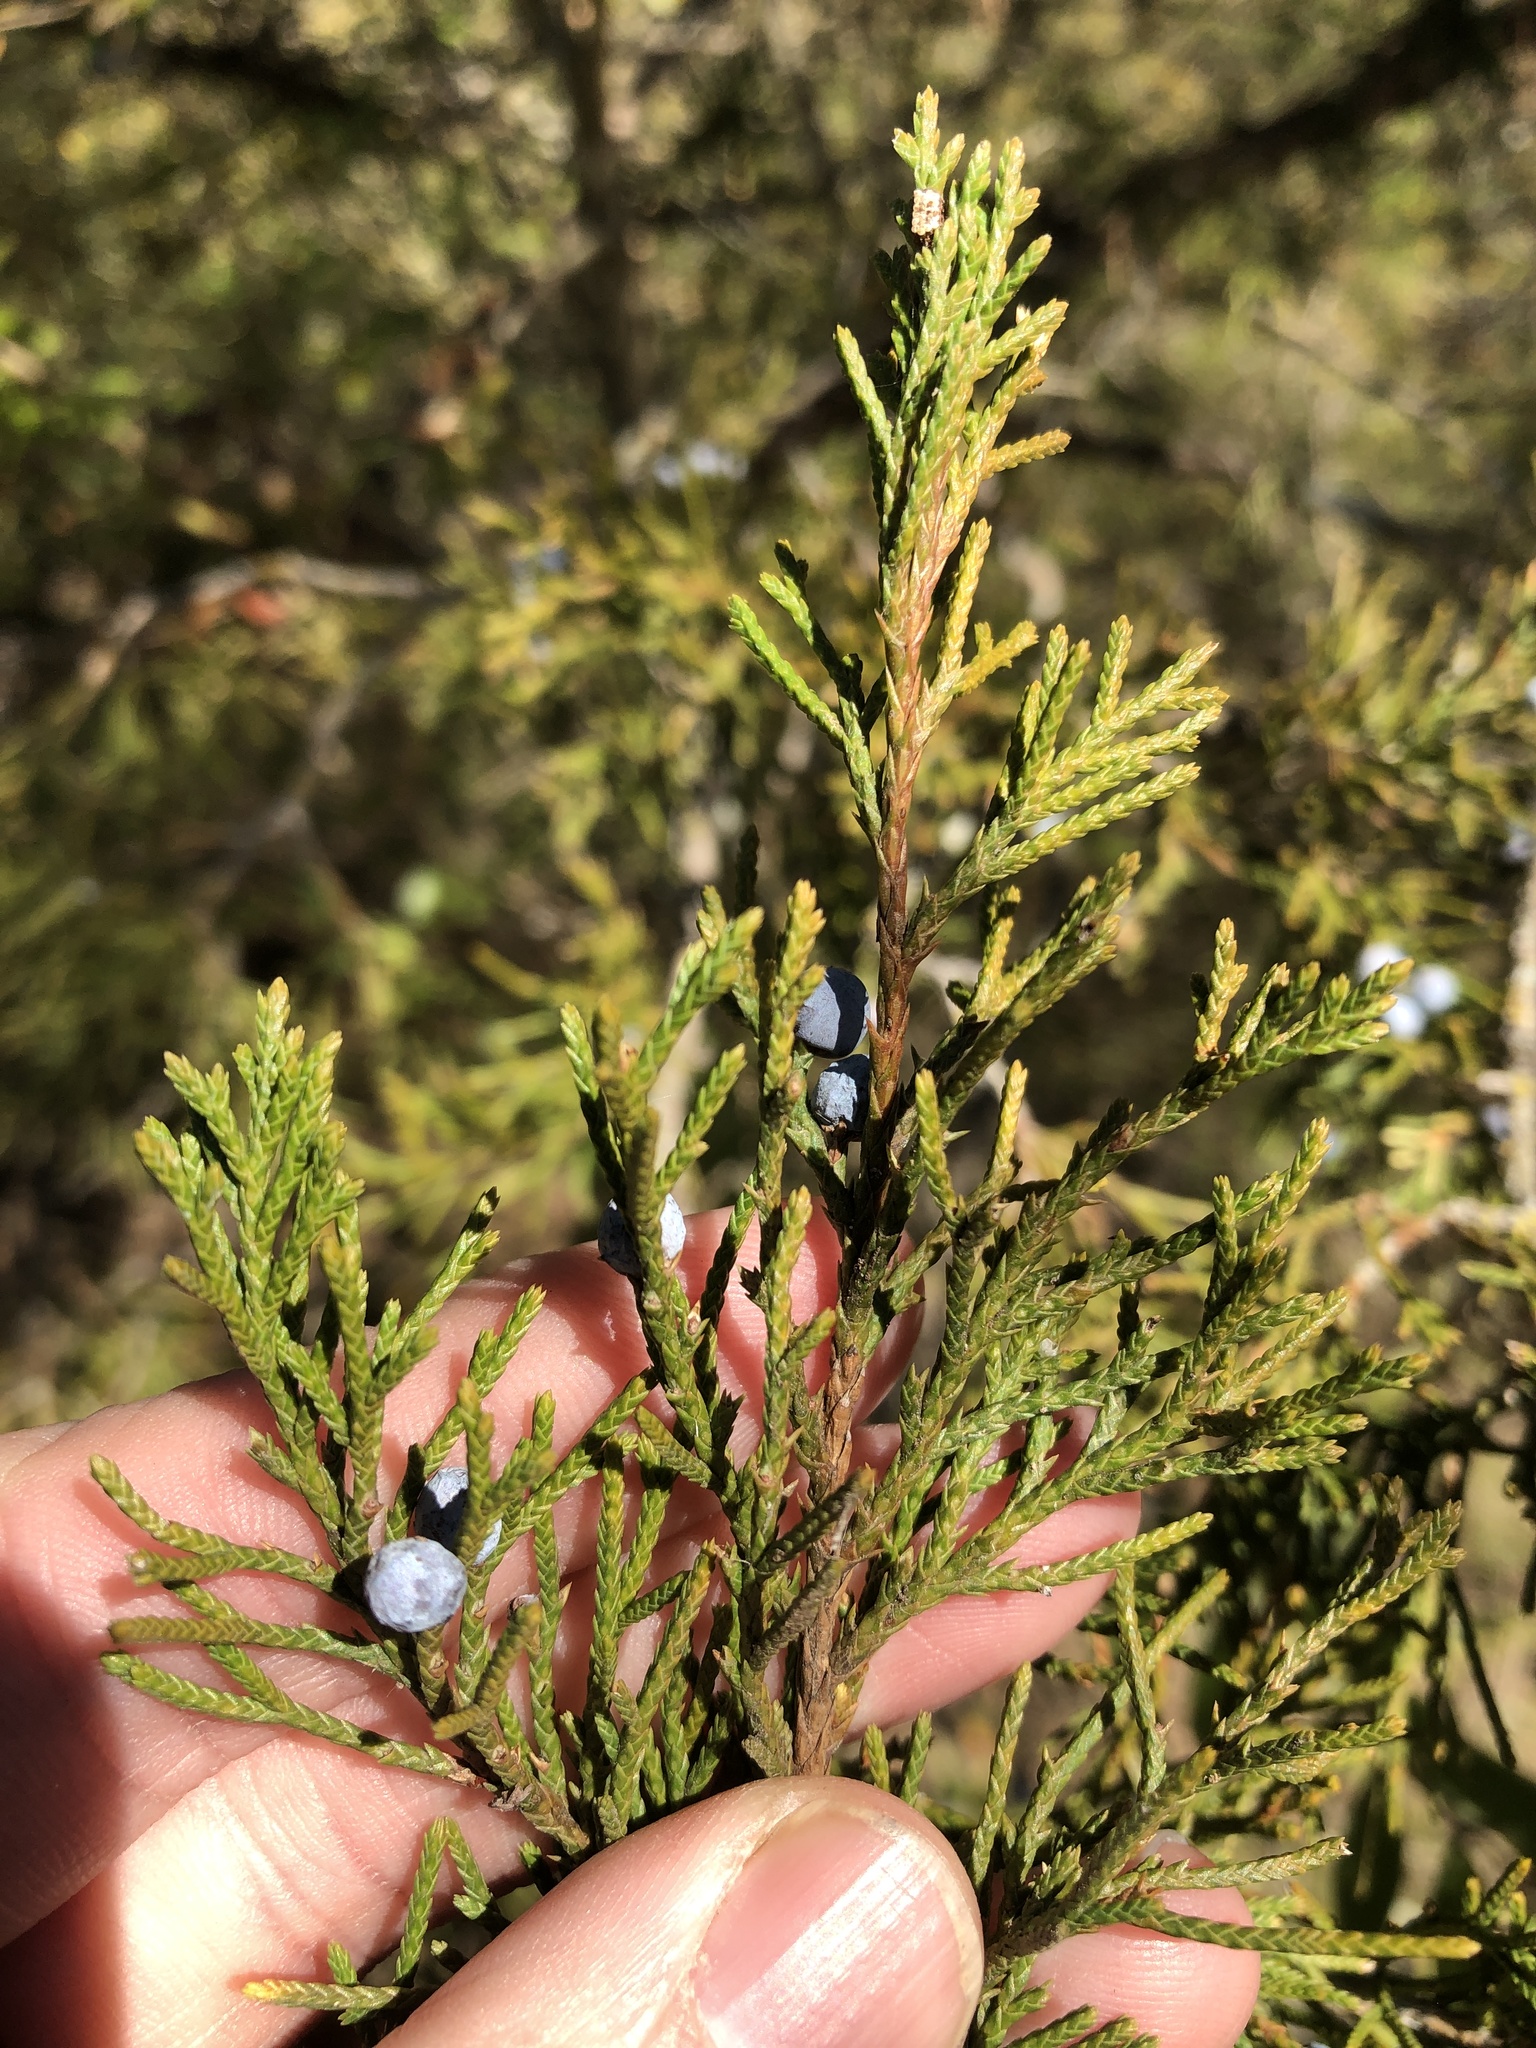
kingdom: Plantae
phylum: Tracheophyta
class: Pinopsida
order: Pinales
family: Cupressaceae
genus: Juniperus
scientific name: Juniperus virginiana
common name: Red juniper
